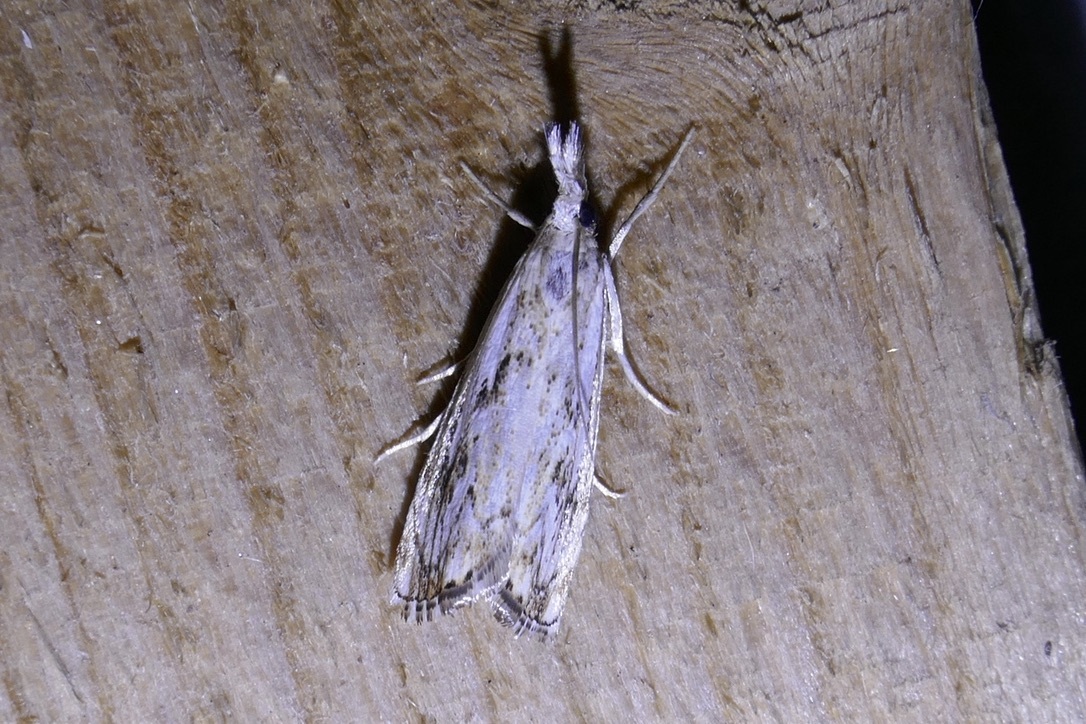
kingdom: Animalia
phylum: Arthropoda
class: Insecta
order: Lepidoptera
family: Crambidae
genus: Catoptria
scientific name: Catoptria falsella
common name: Chequered grass-veneer
